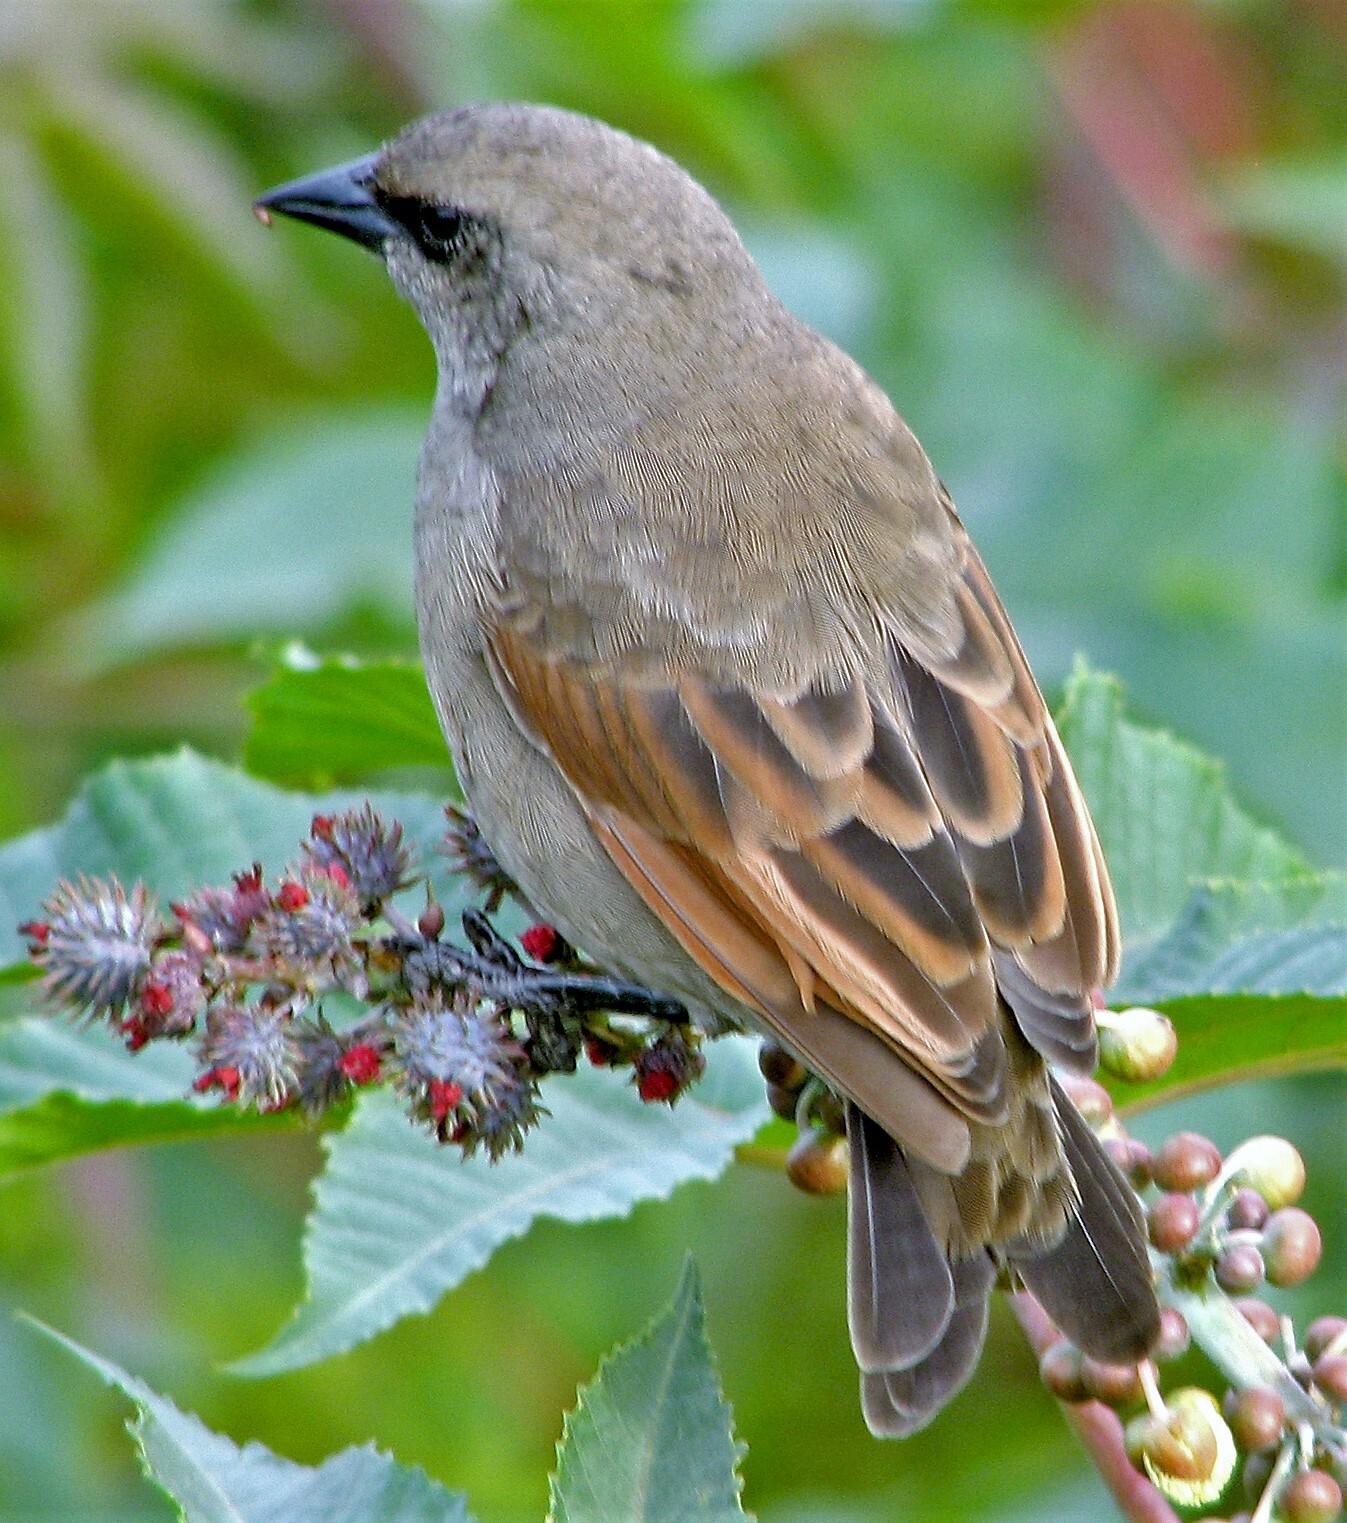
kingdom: Animalia
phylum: Chordata
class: Aves
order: Passeriformes
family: Icteridae
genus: Agelaioides
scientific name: Agelaioides badius
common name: Baywing
